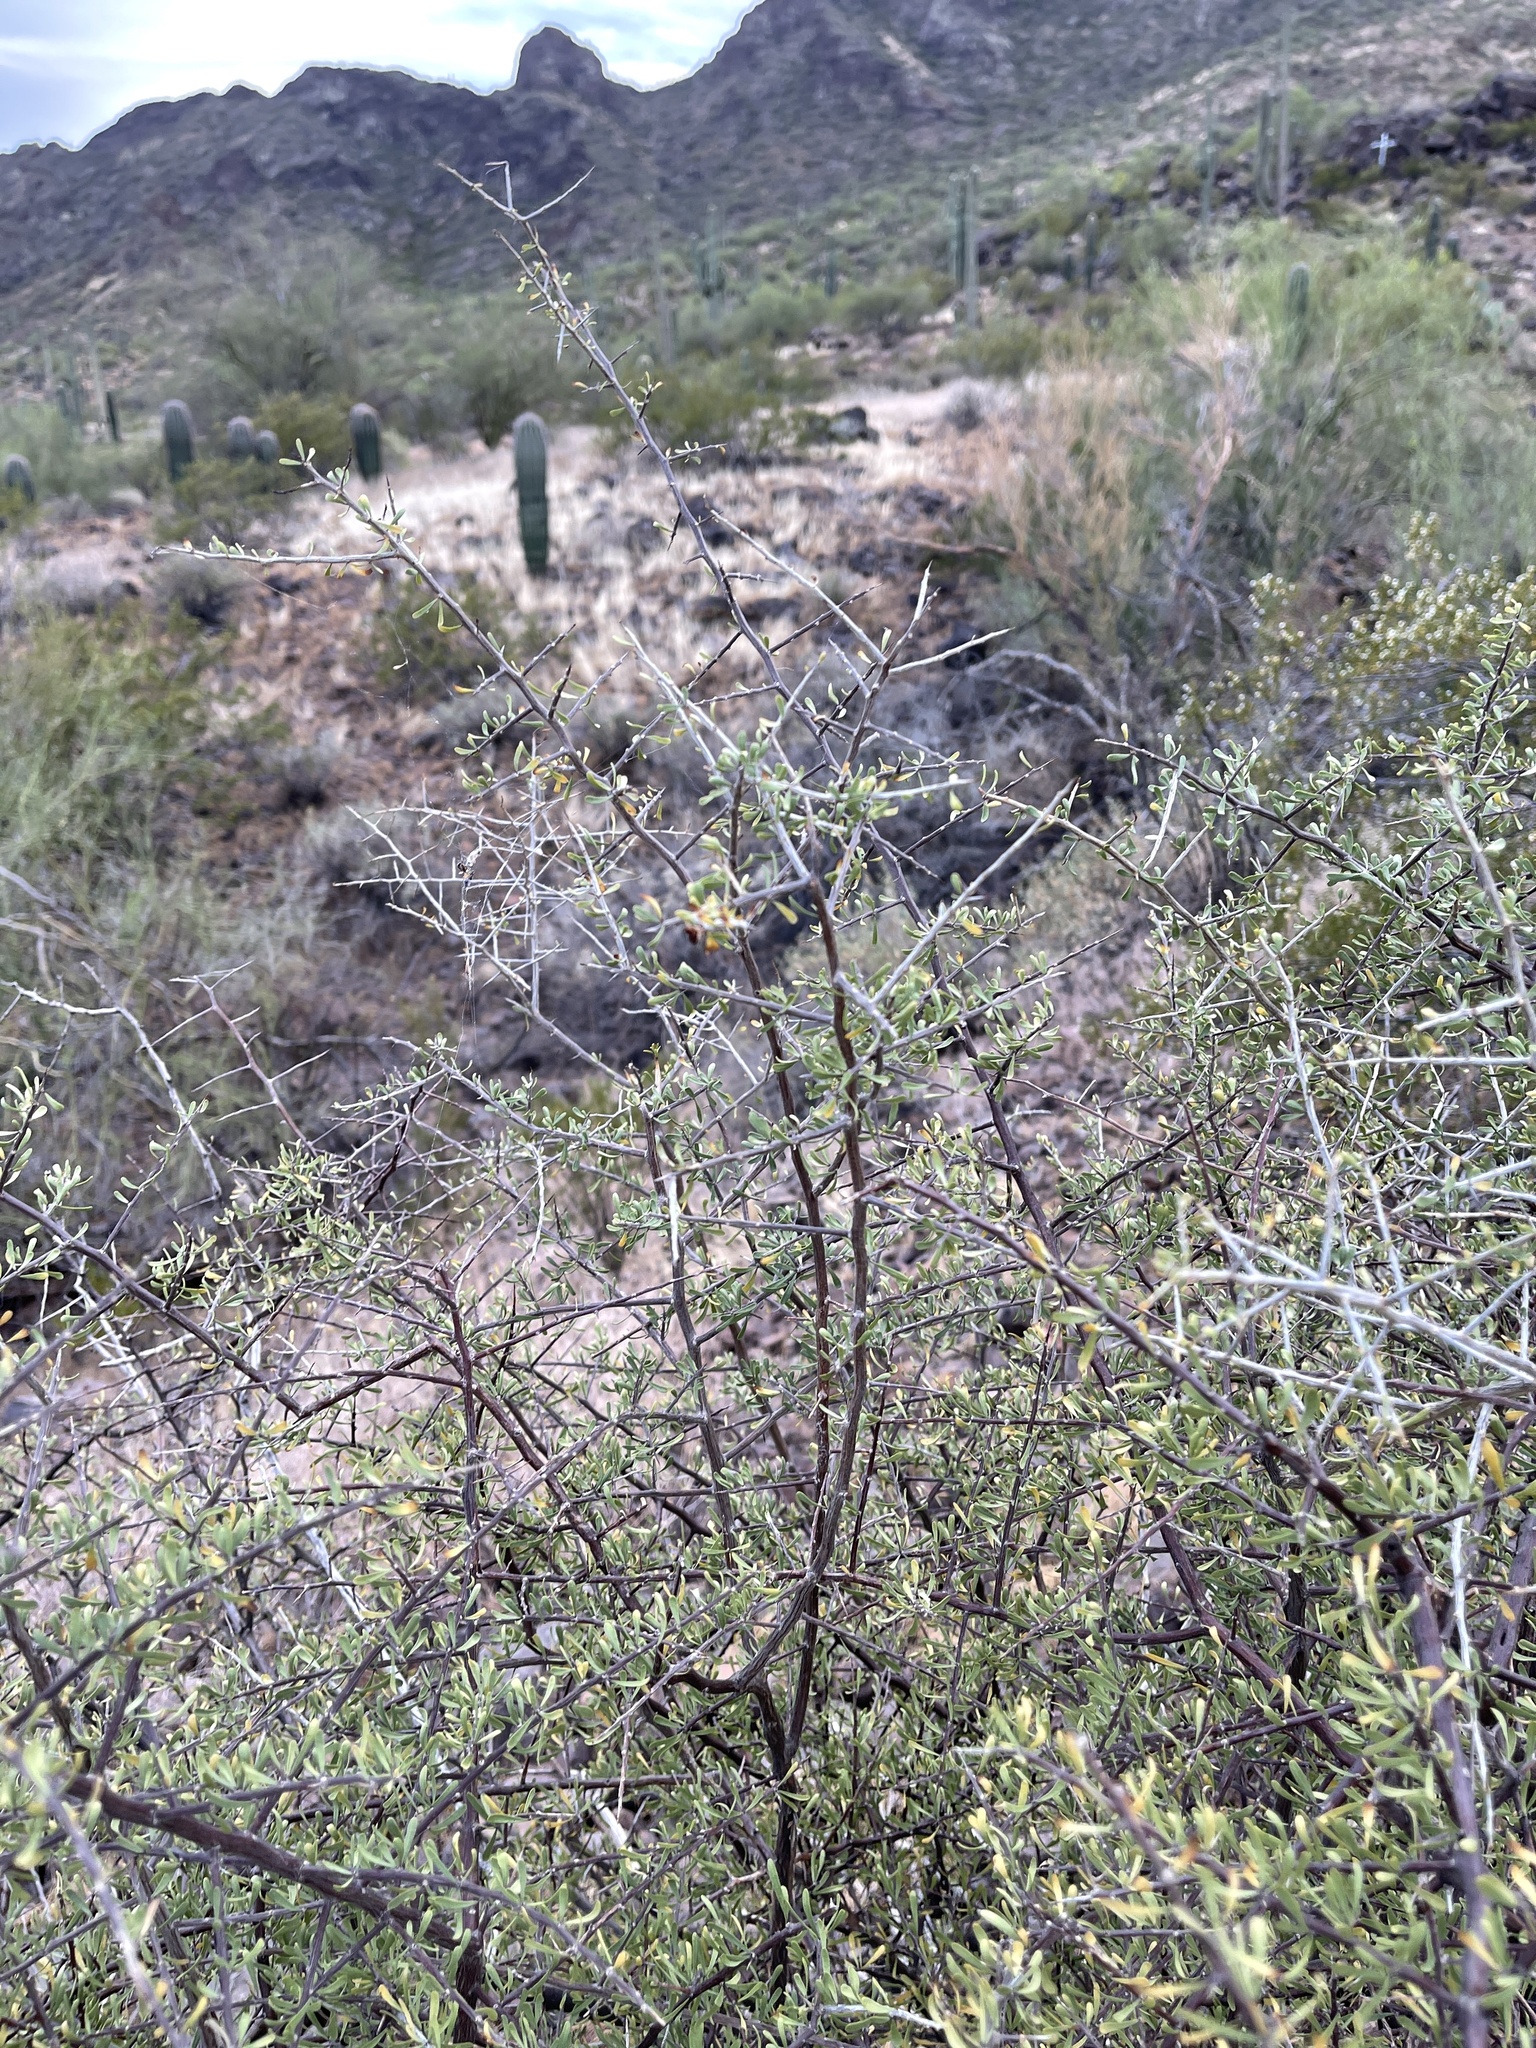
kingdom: Plantae
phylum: Tracheophyta
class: Magnoliopsida
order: Solanales
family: Solanaceae
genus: Lycium
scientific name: Lycium berlandieri
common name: Berlandier wolfberry
